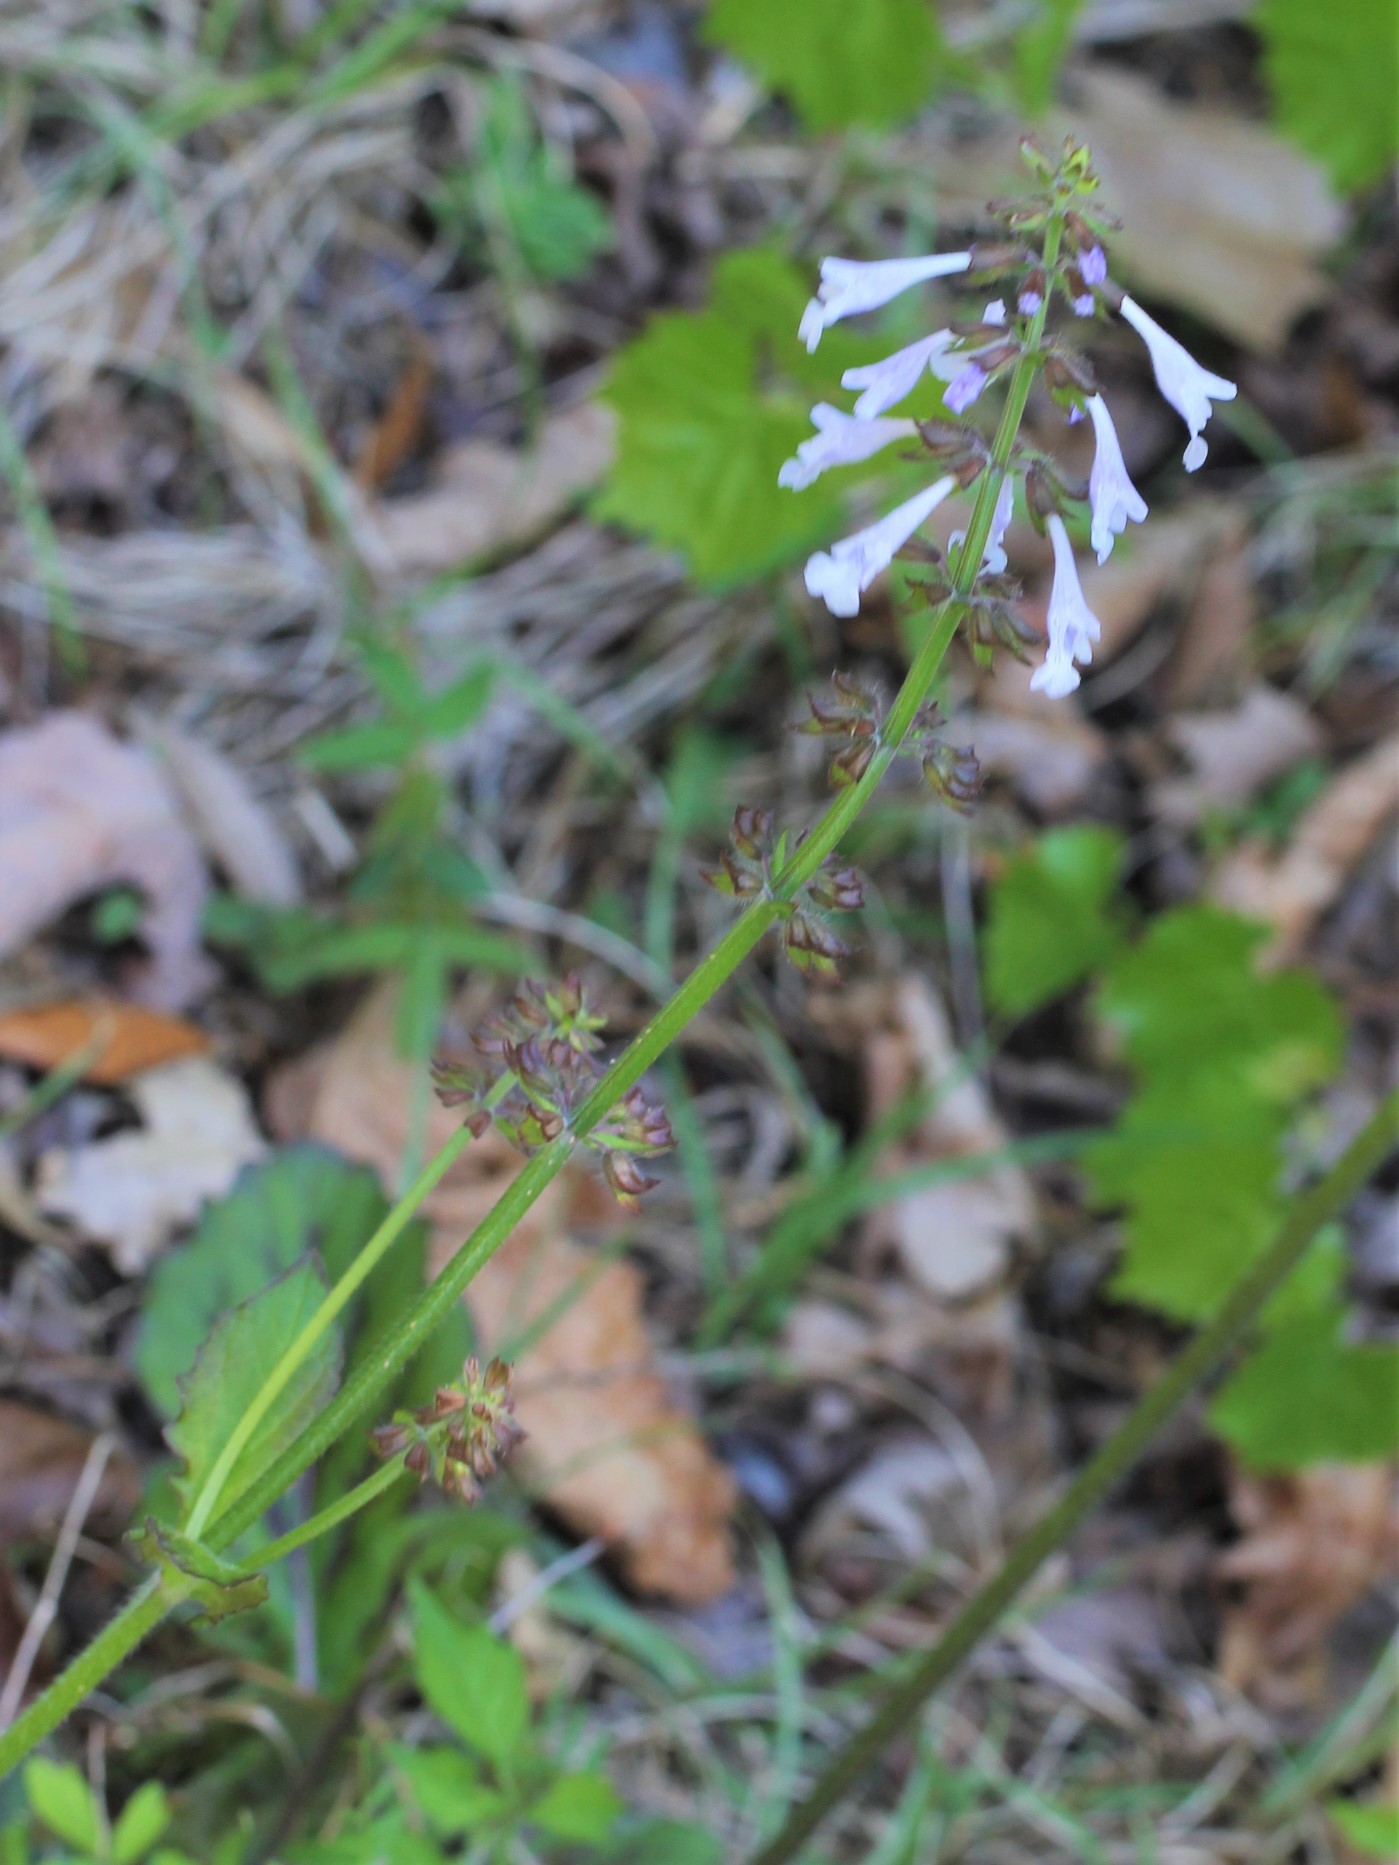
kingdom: Plantae
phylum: Tracheophyta
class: Magnoliopsida
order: Lamiales
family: Lamiaceae
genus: Salvia
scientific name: Salvia lyrata
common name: Cancerweed
